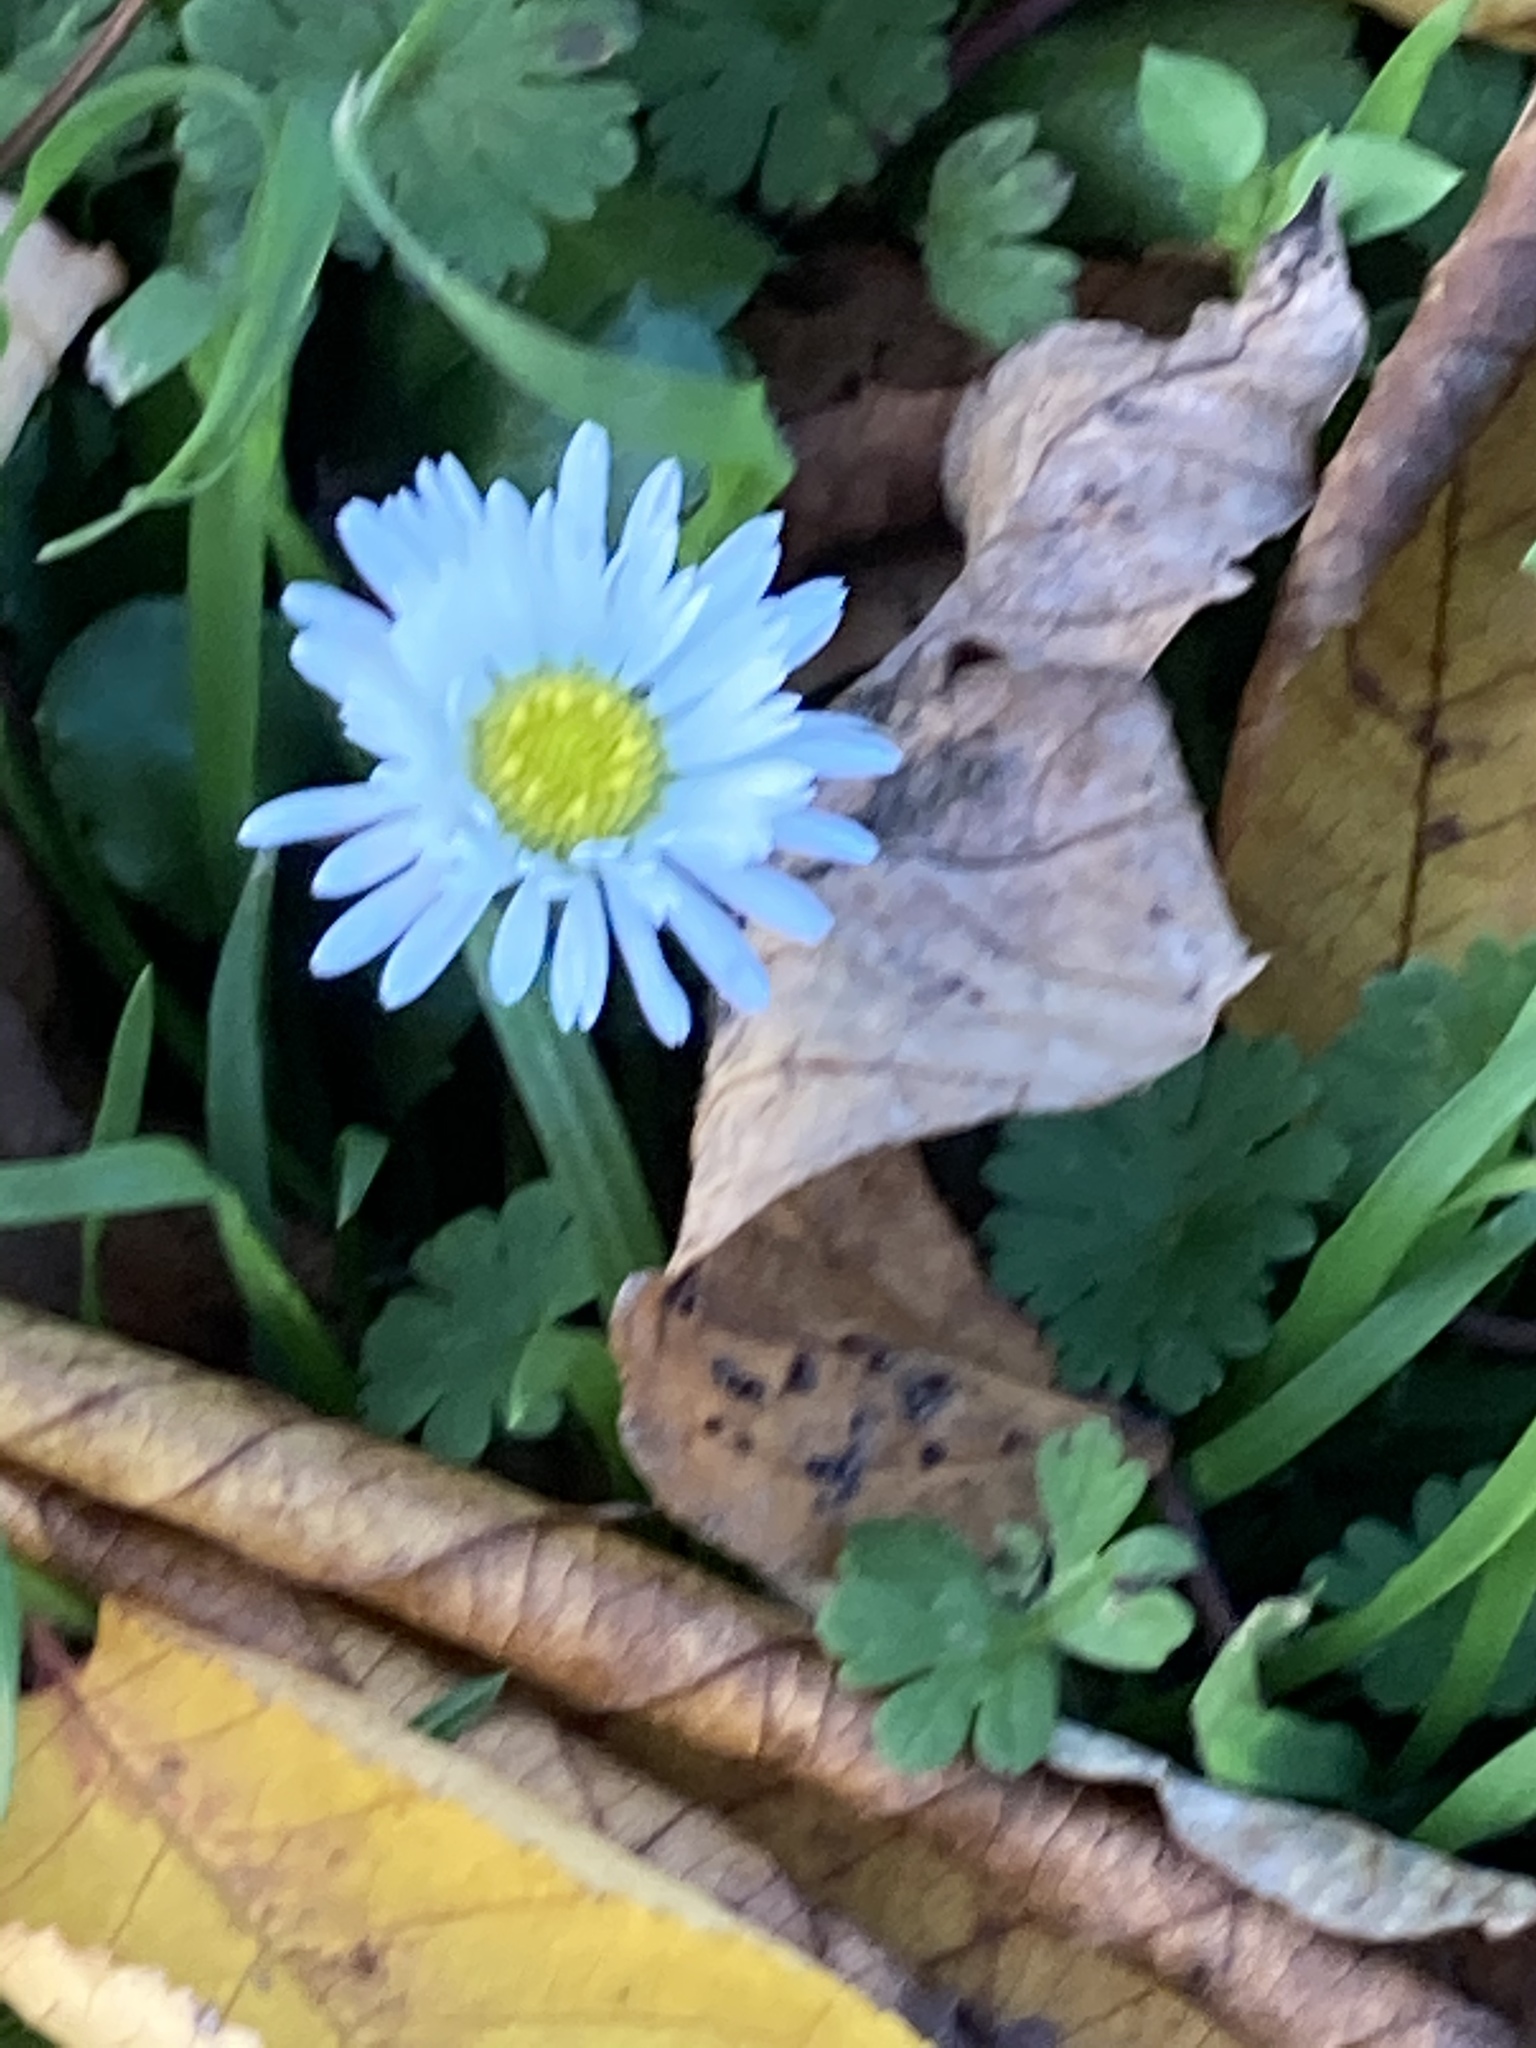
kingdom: Plantae
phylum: Tracheophyta
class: Magnoliopsida
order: Asterales
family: Asteraceae
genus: Bellis
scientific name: Bellis perennis
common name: Lawndaisy
